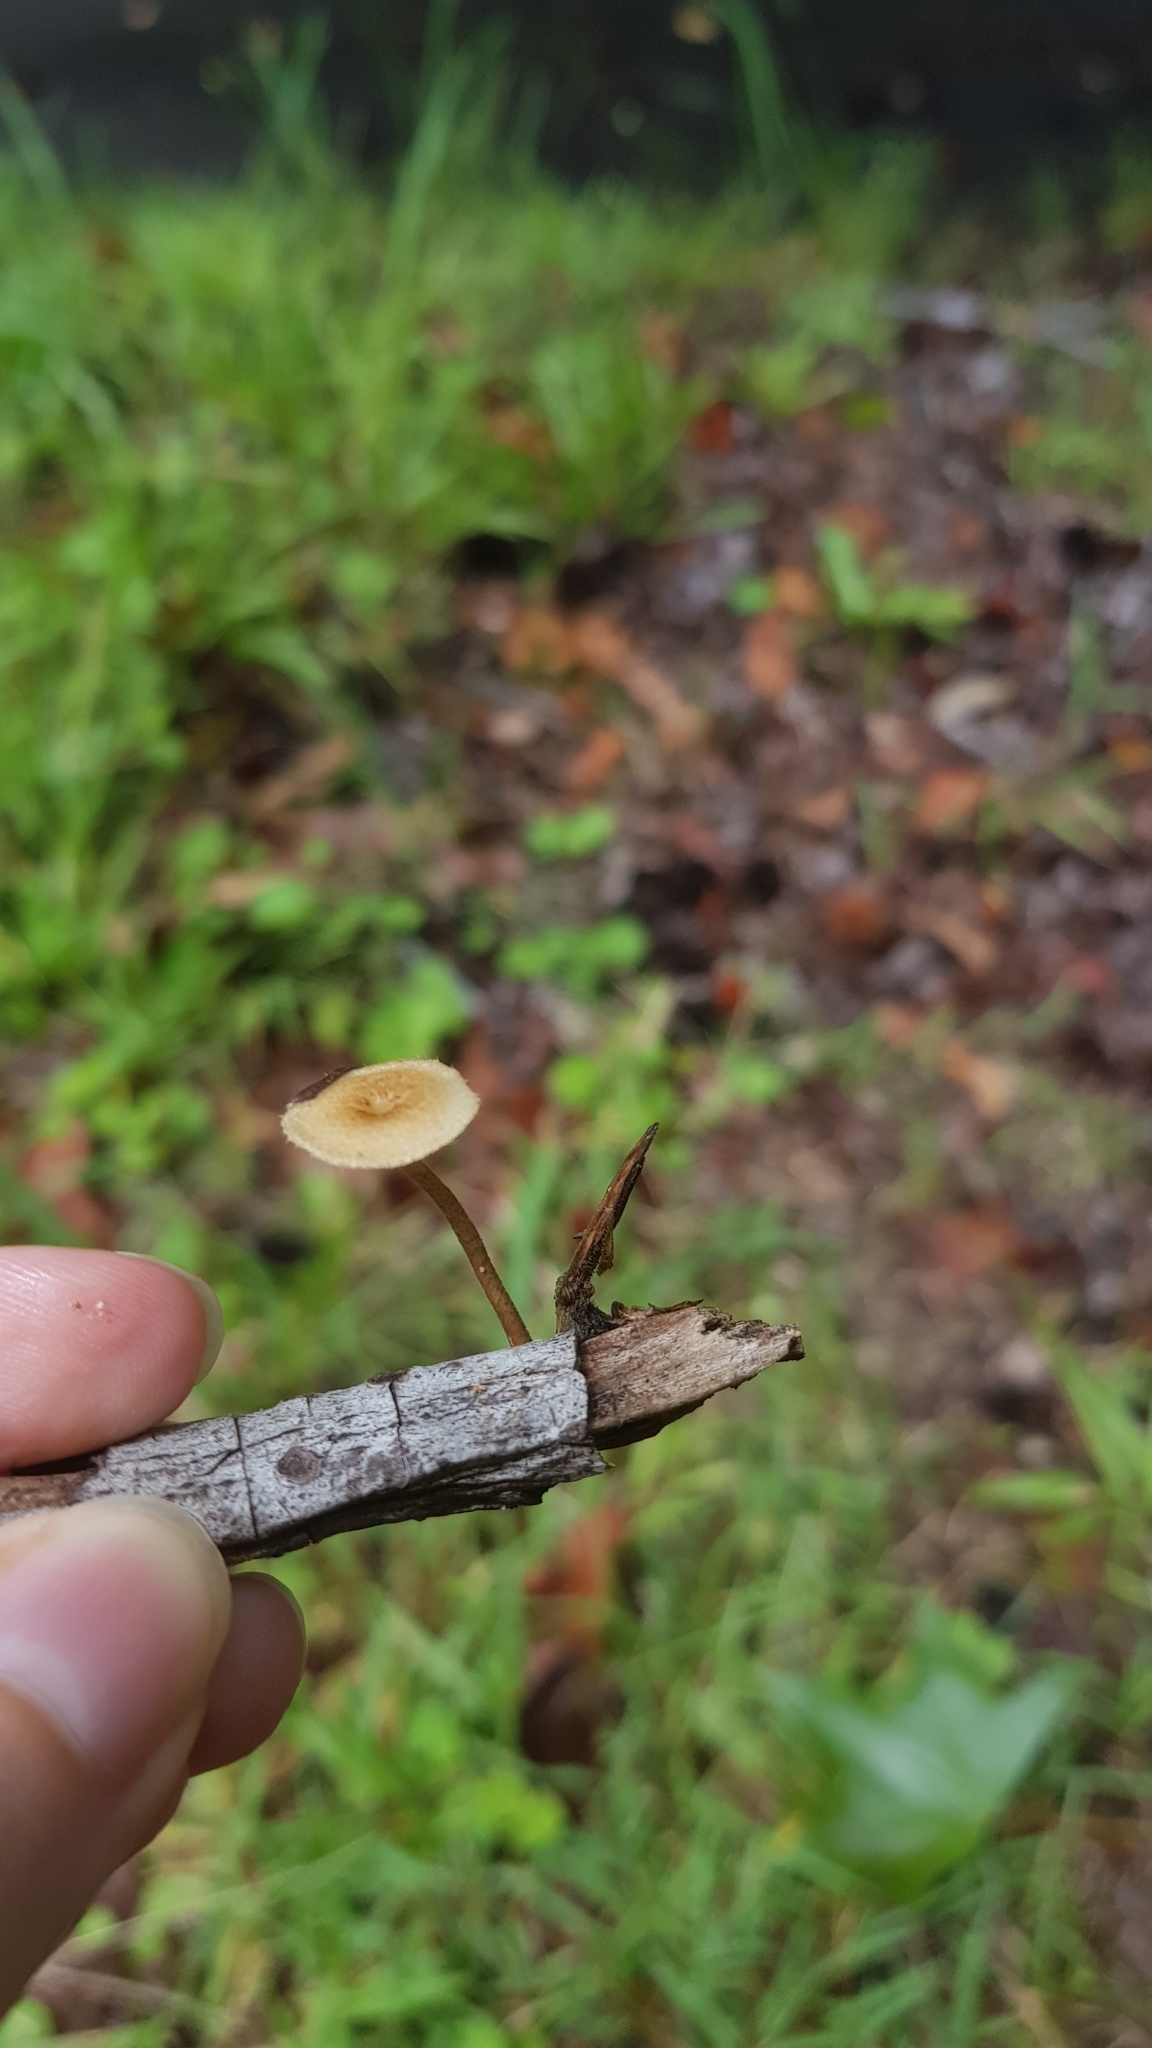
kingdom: Fungi
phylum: Basidiomycota
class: Agaricomycetes
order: Polyporales
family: Polyporaceae
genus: Lentinus
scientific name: Lentinus arcularius
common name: Spring polypore
